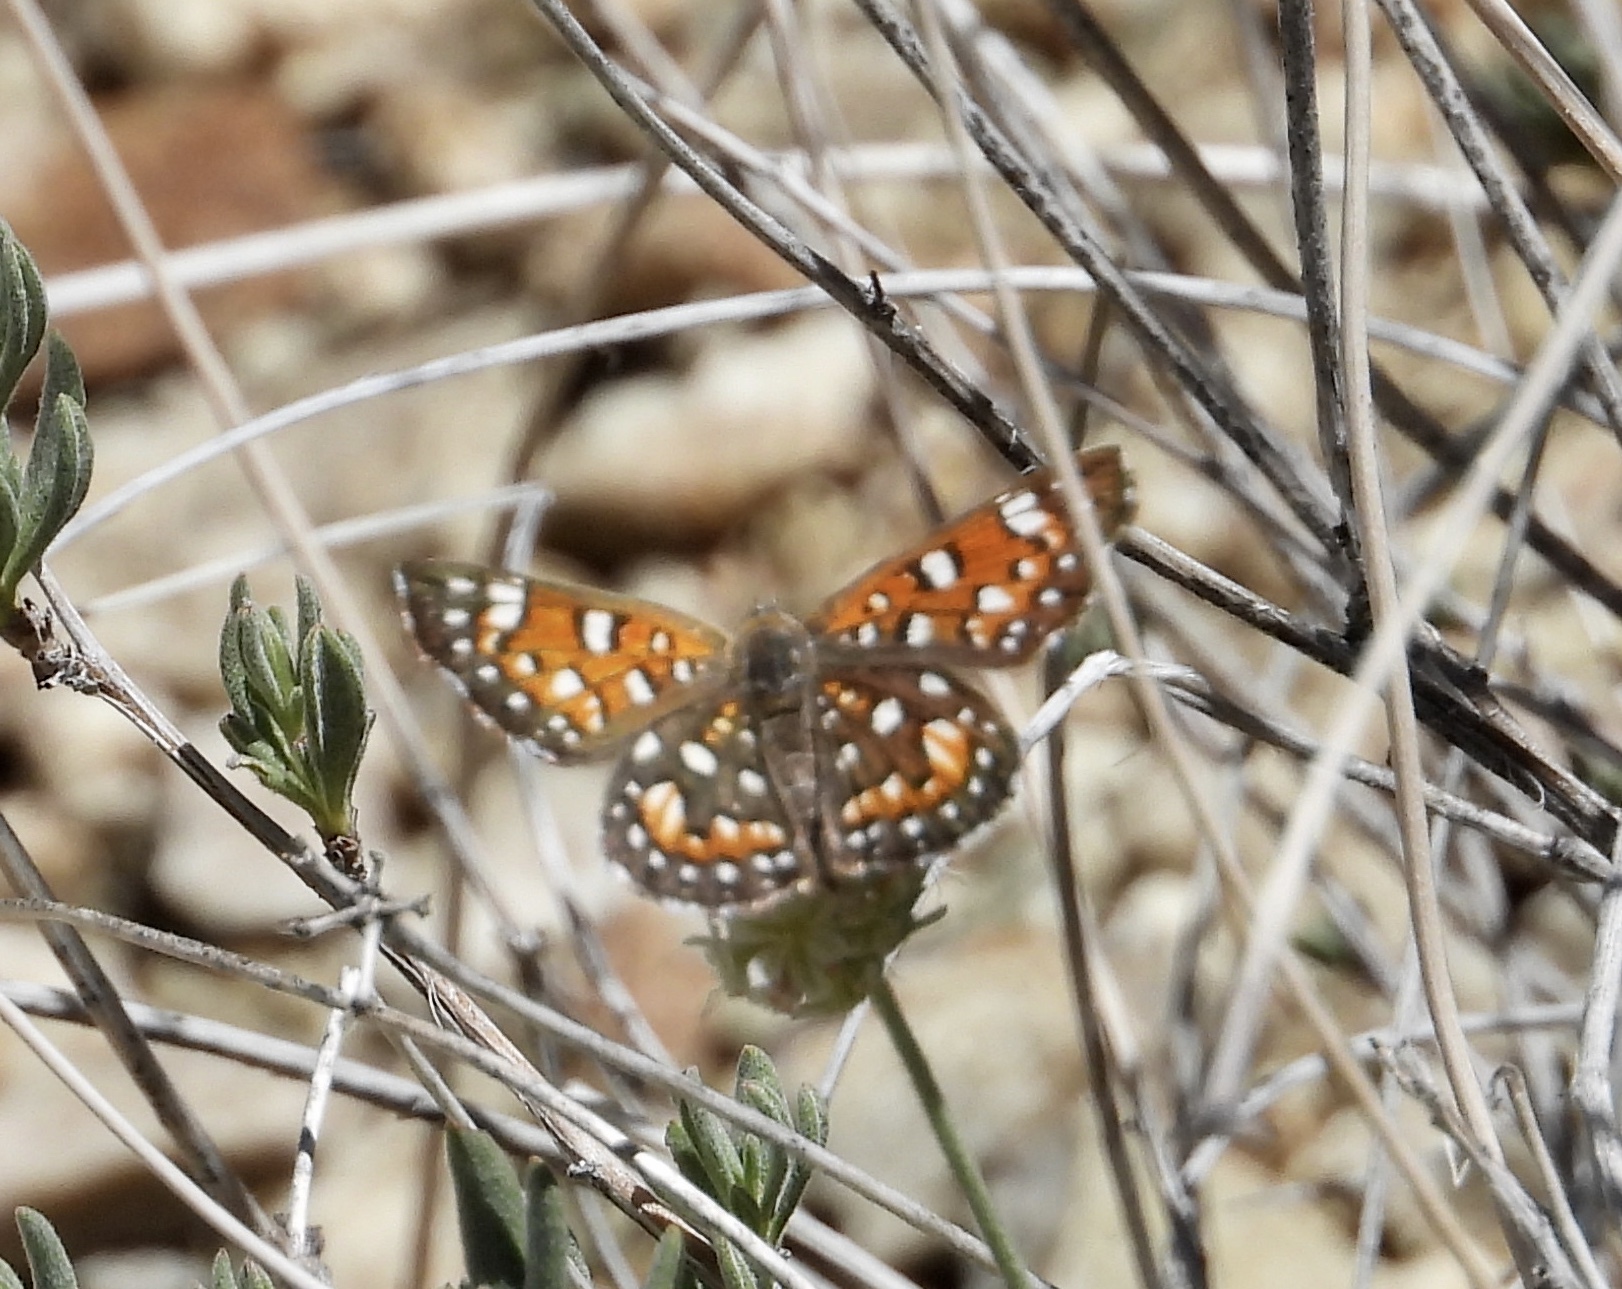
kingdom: Animalia
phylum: Arthropoda
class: Insecta
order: Lepidoptera
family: Riodinidae
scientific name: Riodinidae
